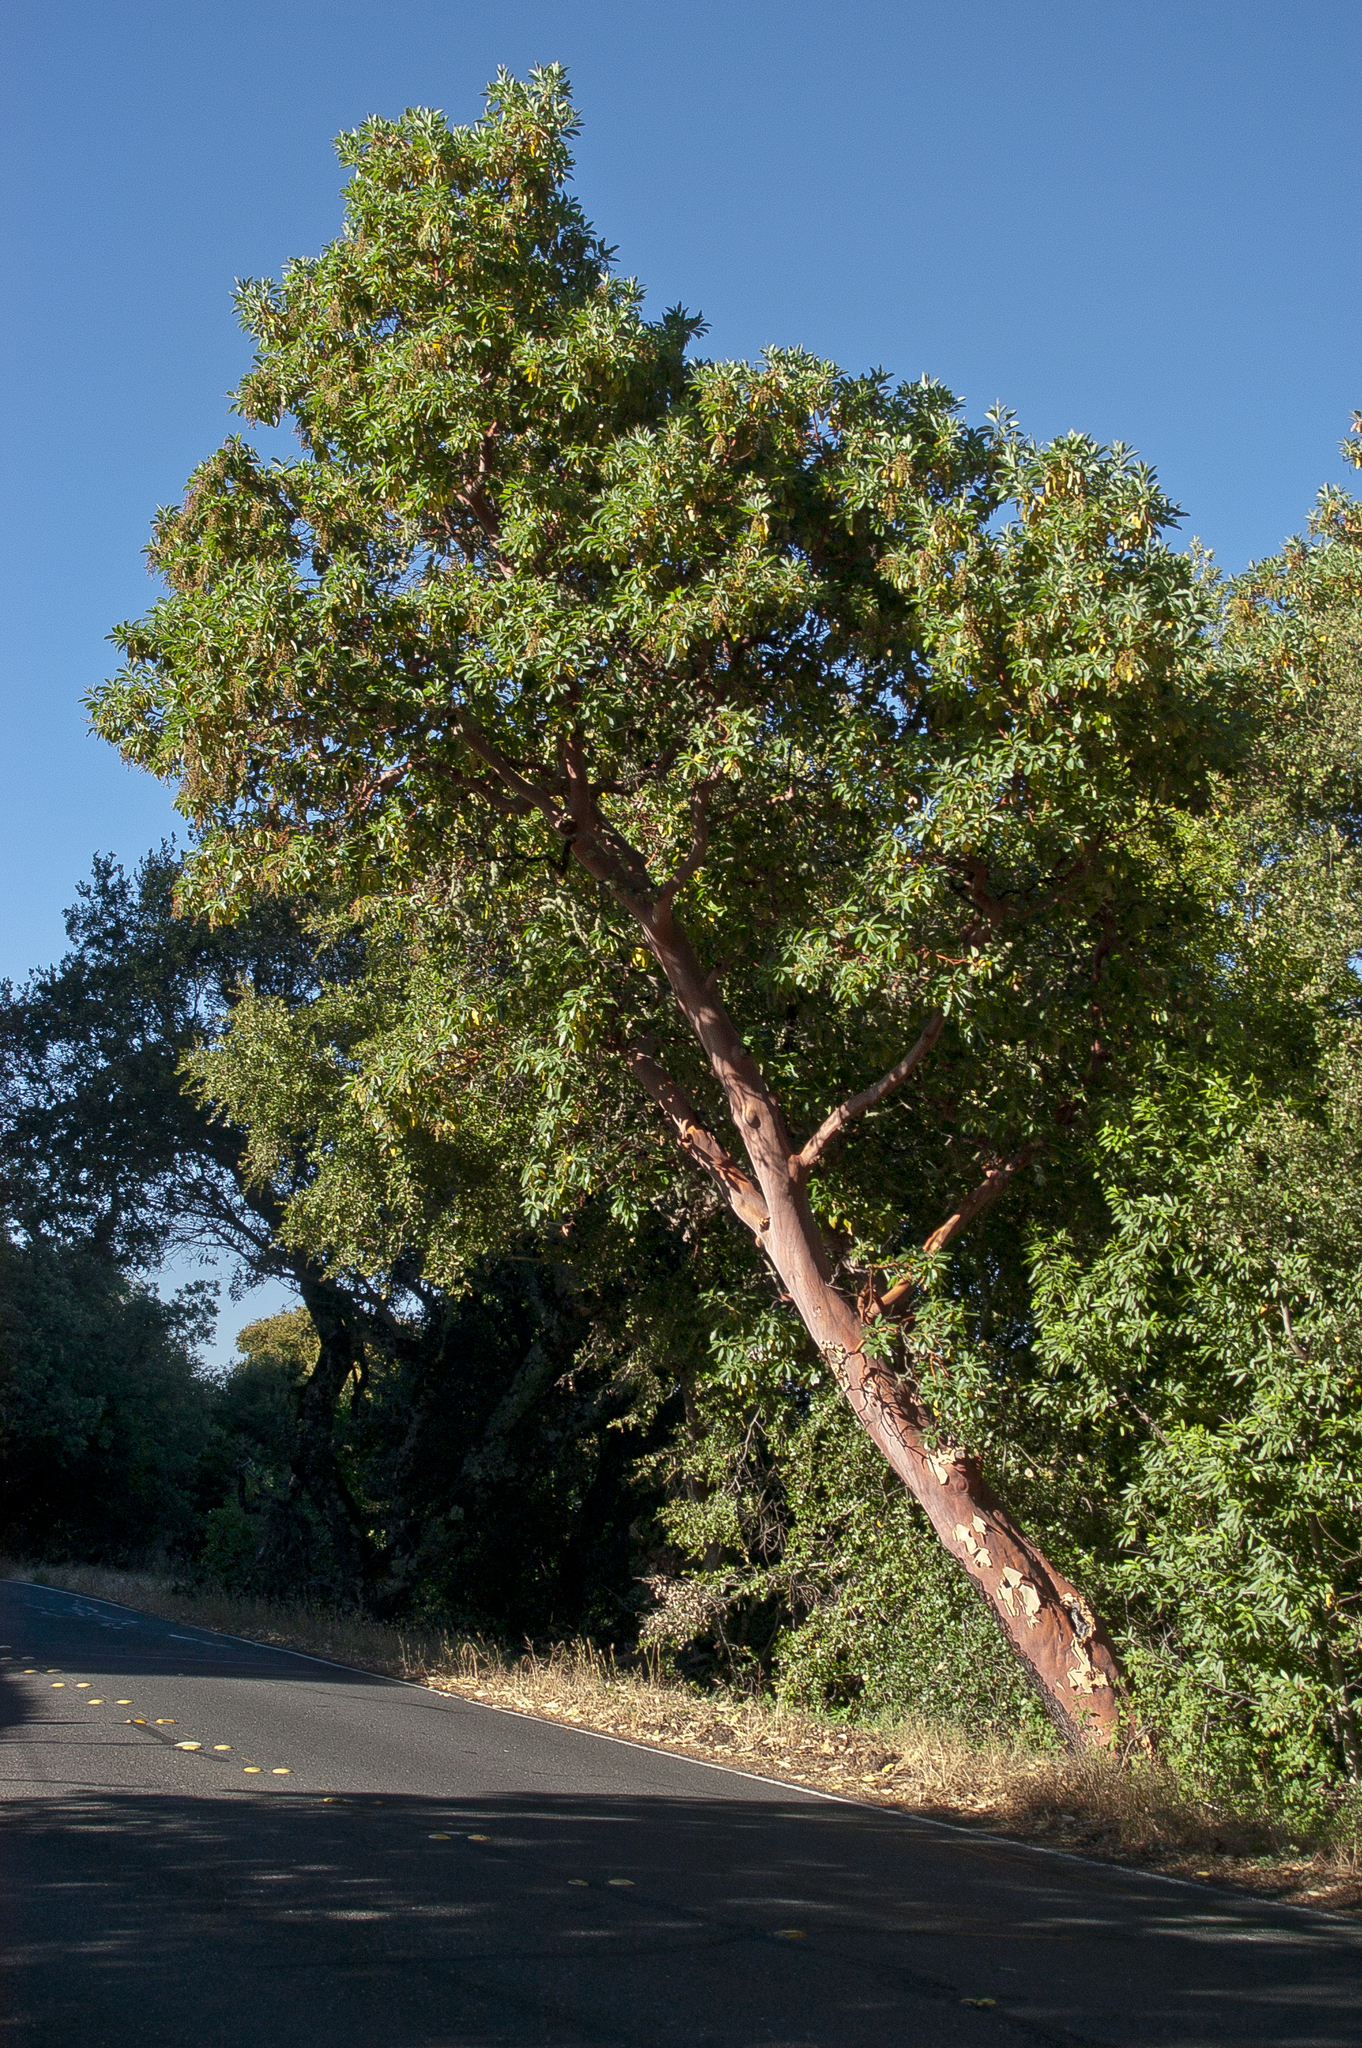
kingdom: Plantae
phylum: Tracheophyta
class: Magnoliopsida
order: Ericales
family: Ericaceae
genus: Arbutus
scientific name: Arbutus menziesii
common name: Pacific madrone
